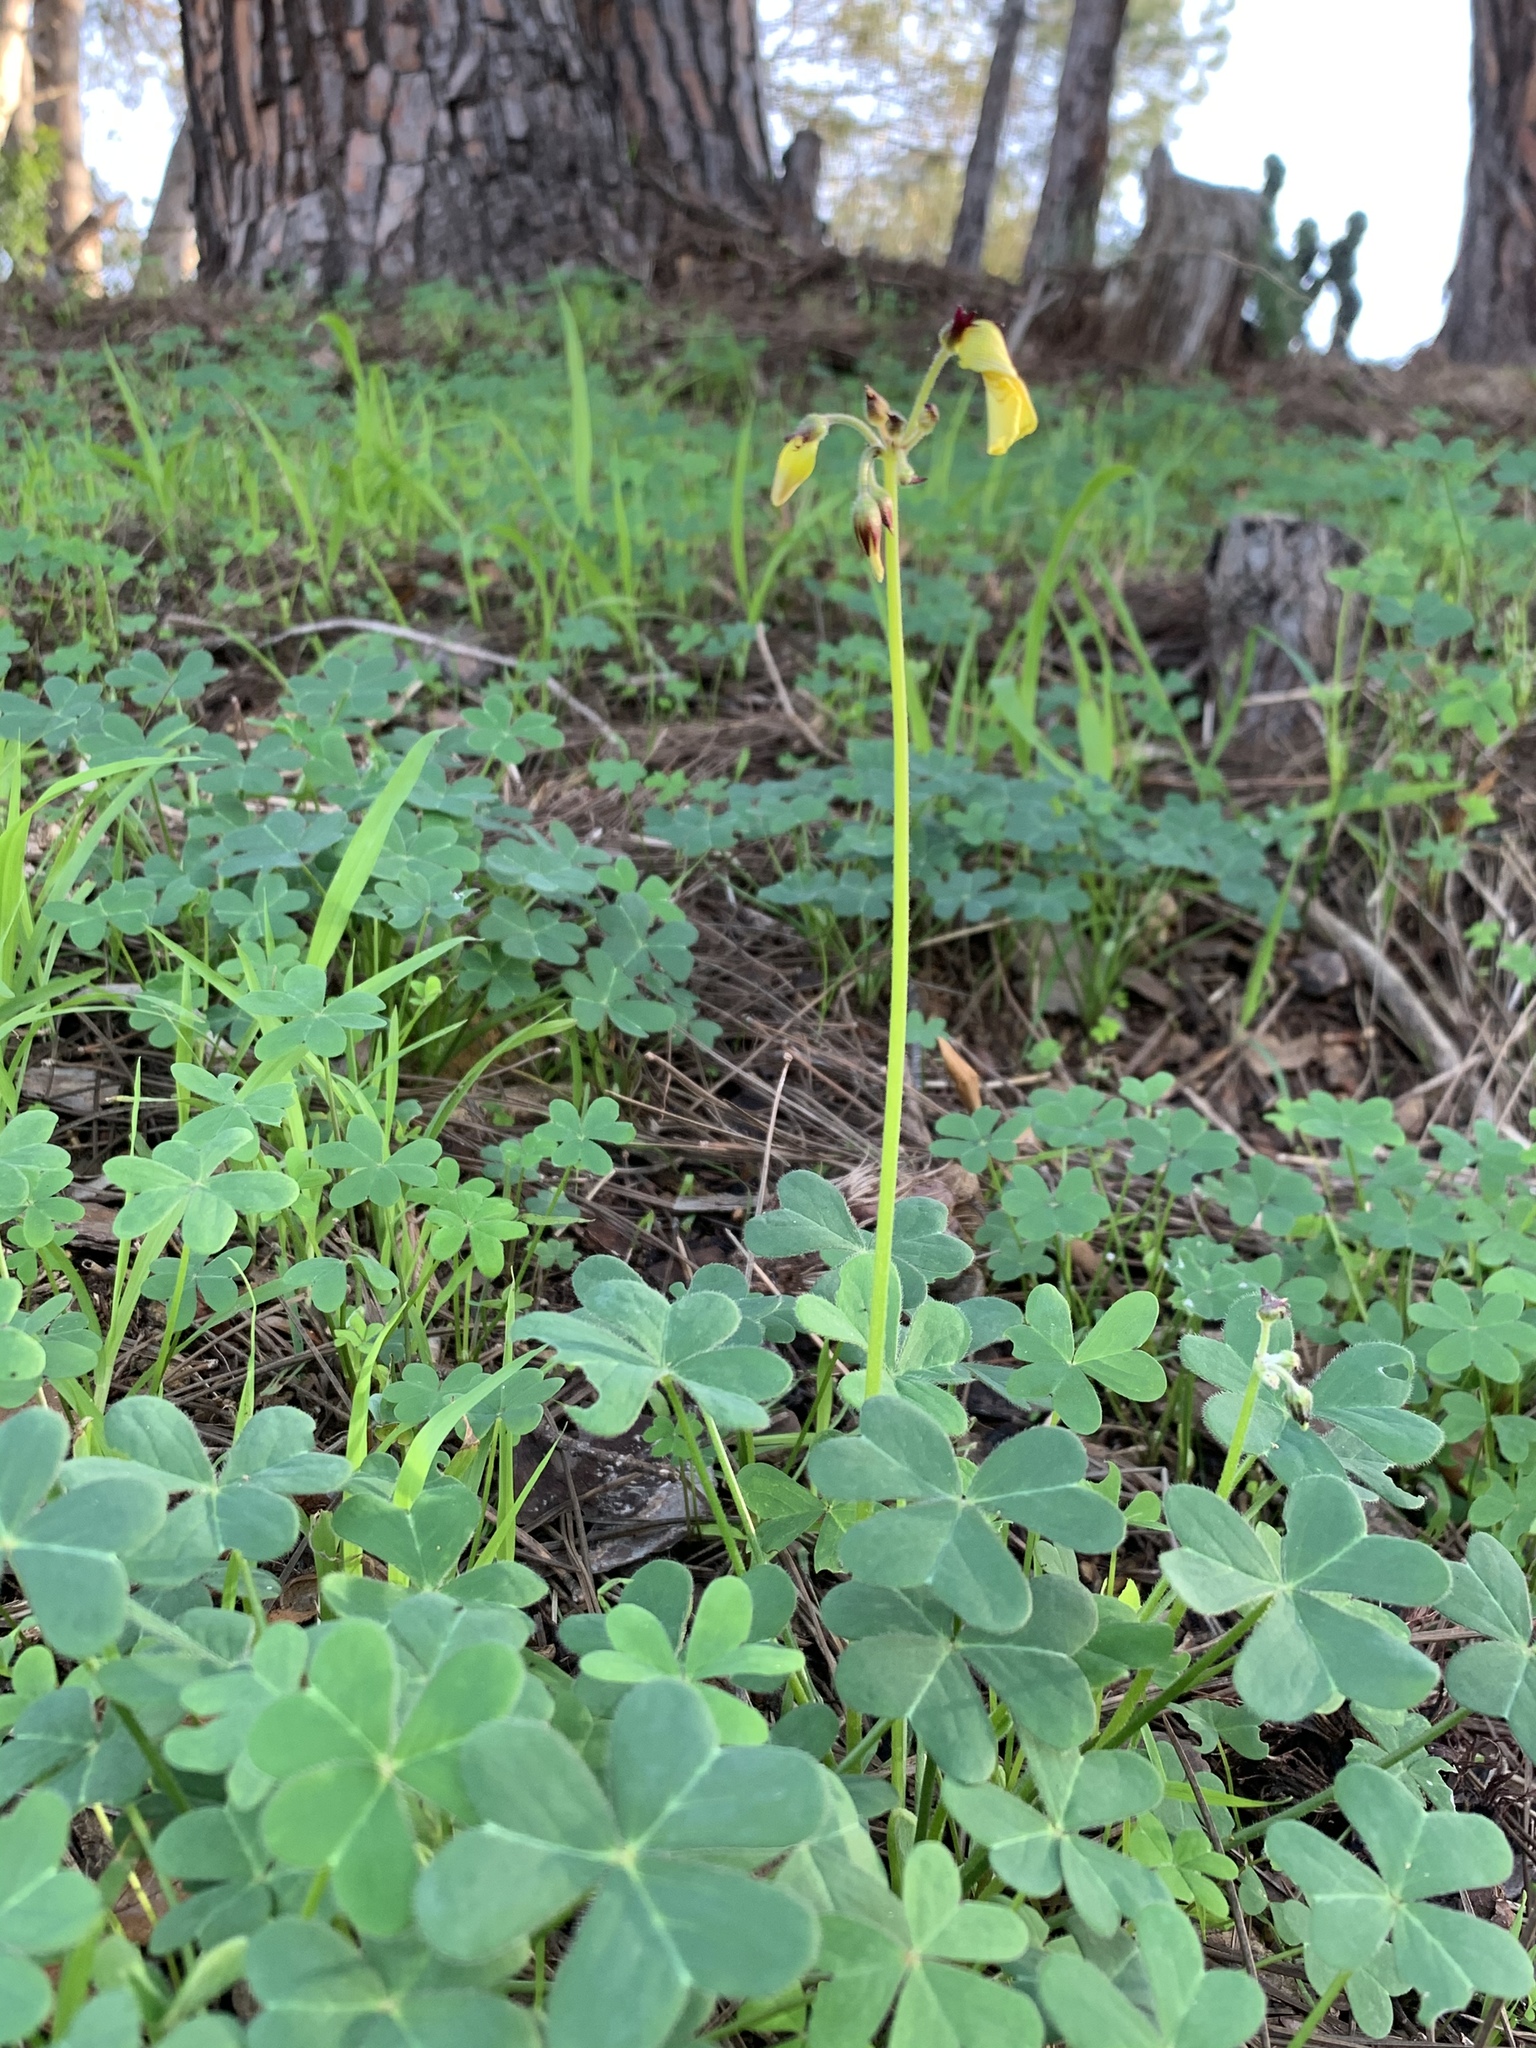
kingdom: Plantae
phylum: Tracheophyta
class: Magnoliopsida
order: Oxalidales
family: Oxalidaceae
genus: Oxalis
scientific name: Oxalis pes-caprae
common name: Bermuda-buttercup
